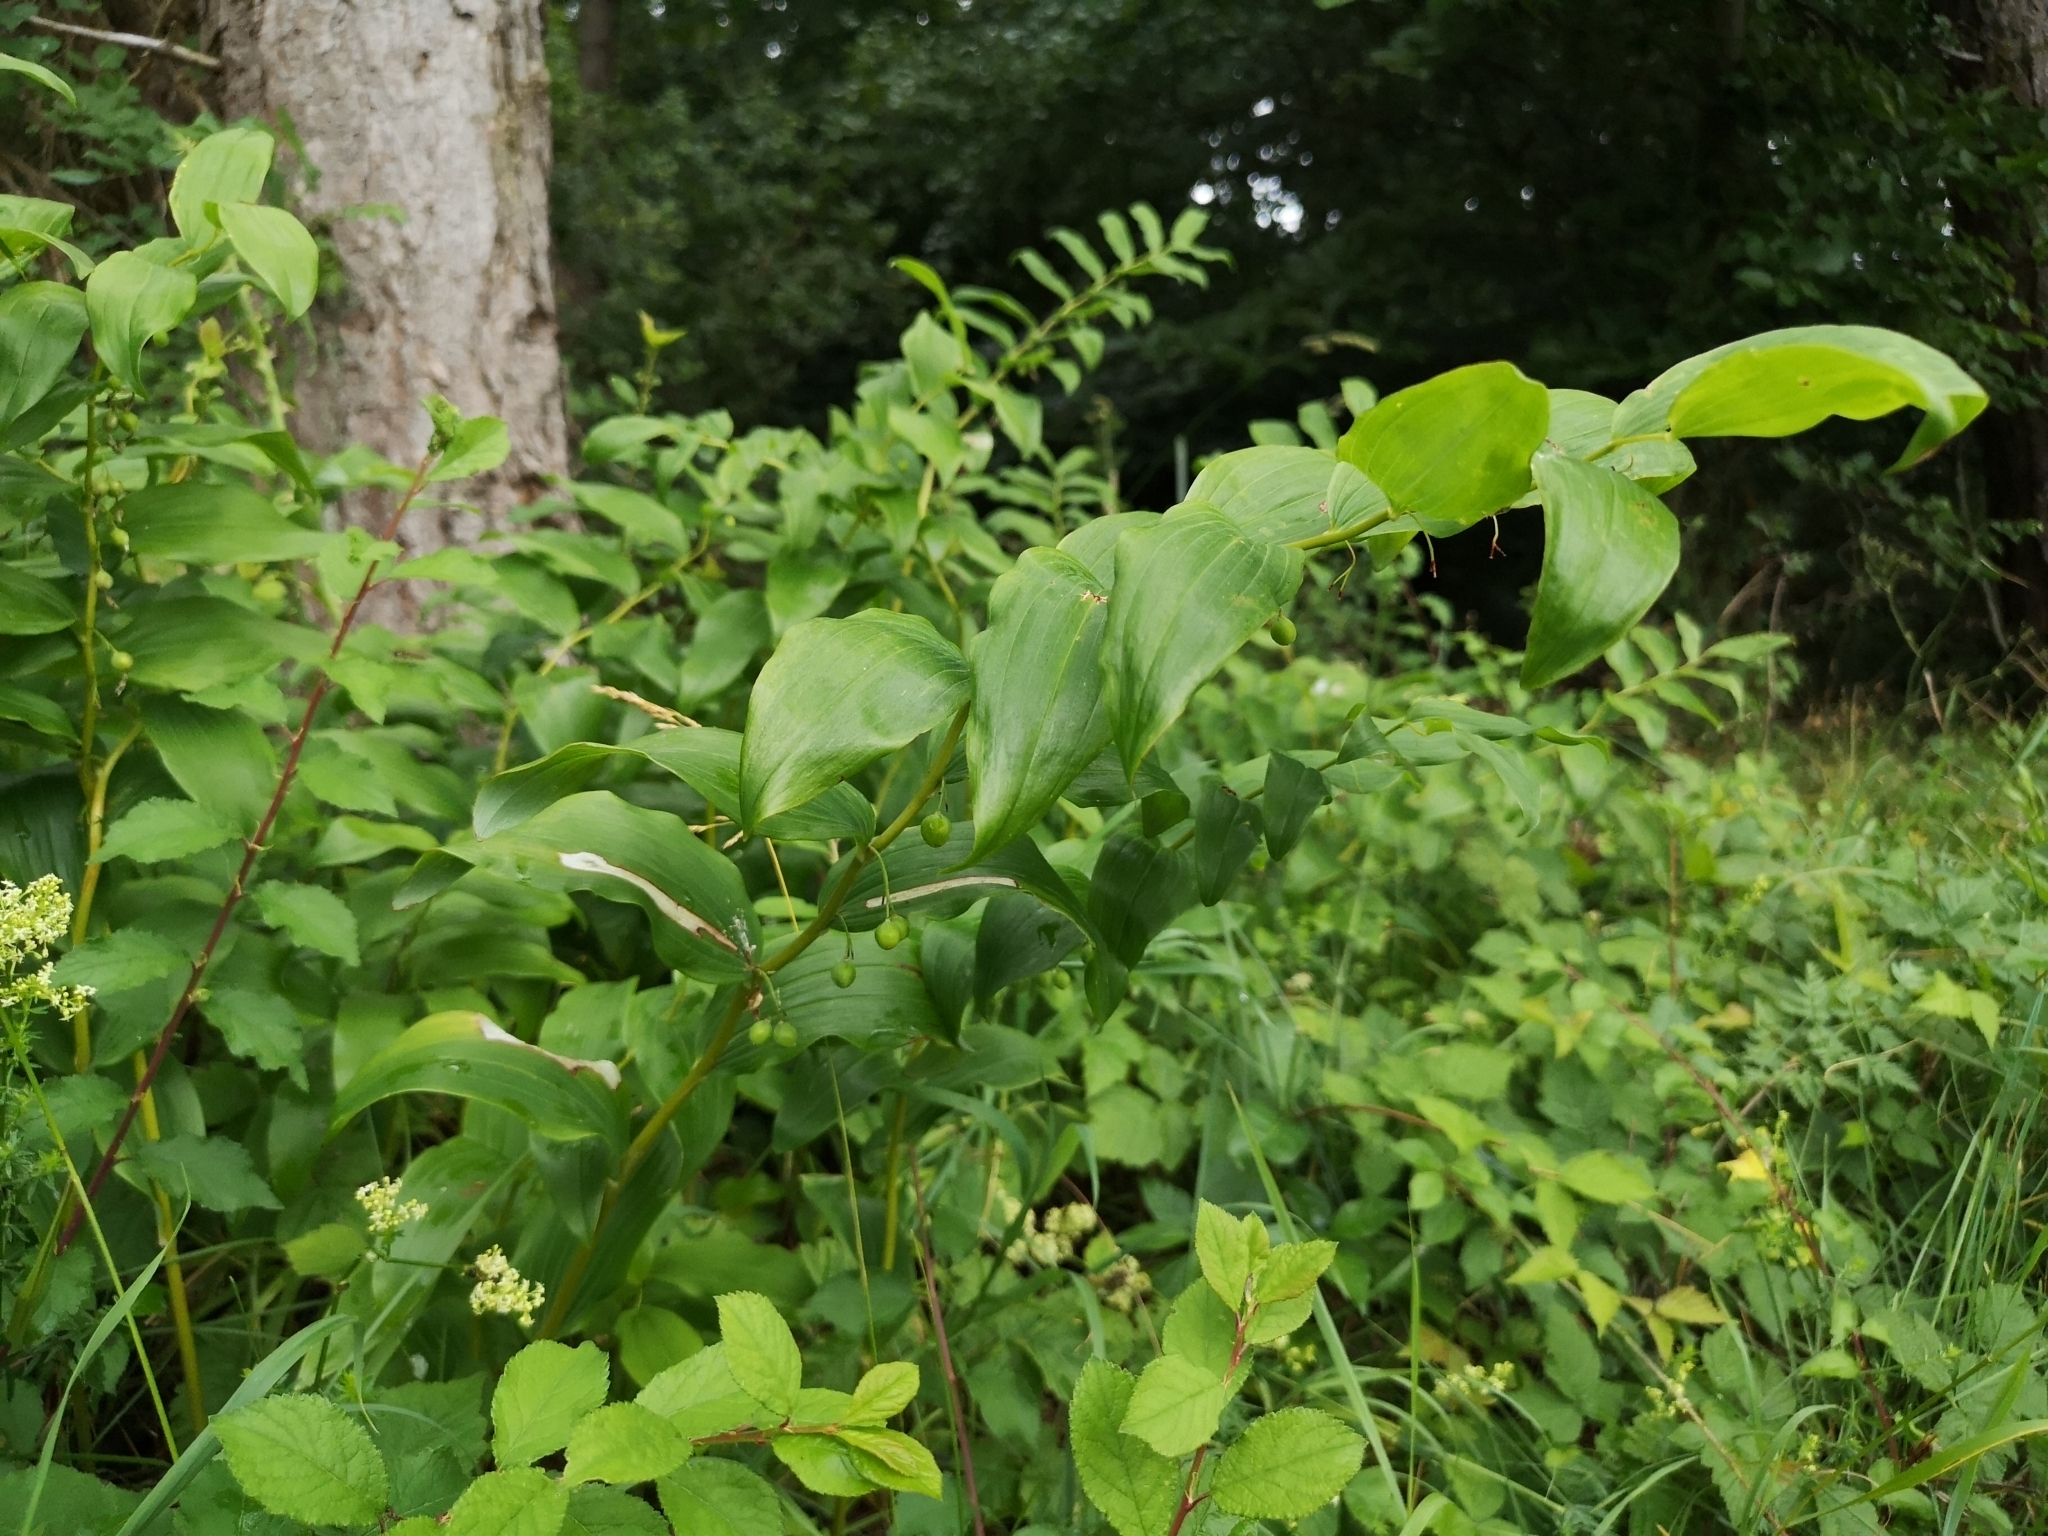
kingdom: Plantae
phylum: Tracheophyta
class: Liliopsida
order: Asparagales
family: Asparagaceae
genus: Polygonatum
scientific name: Polygonatum multiflorum
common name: Solomon's-seal
